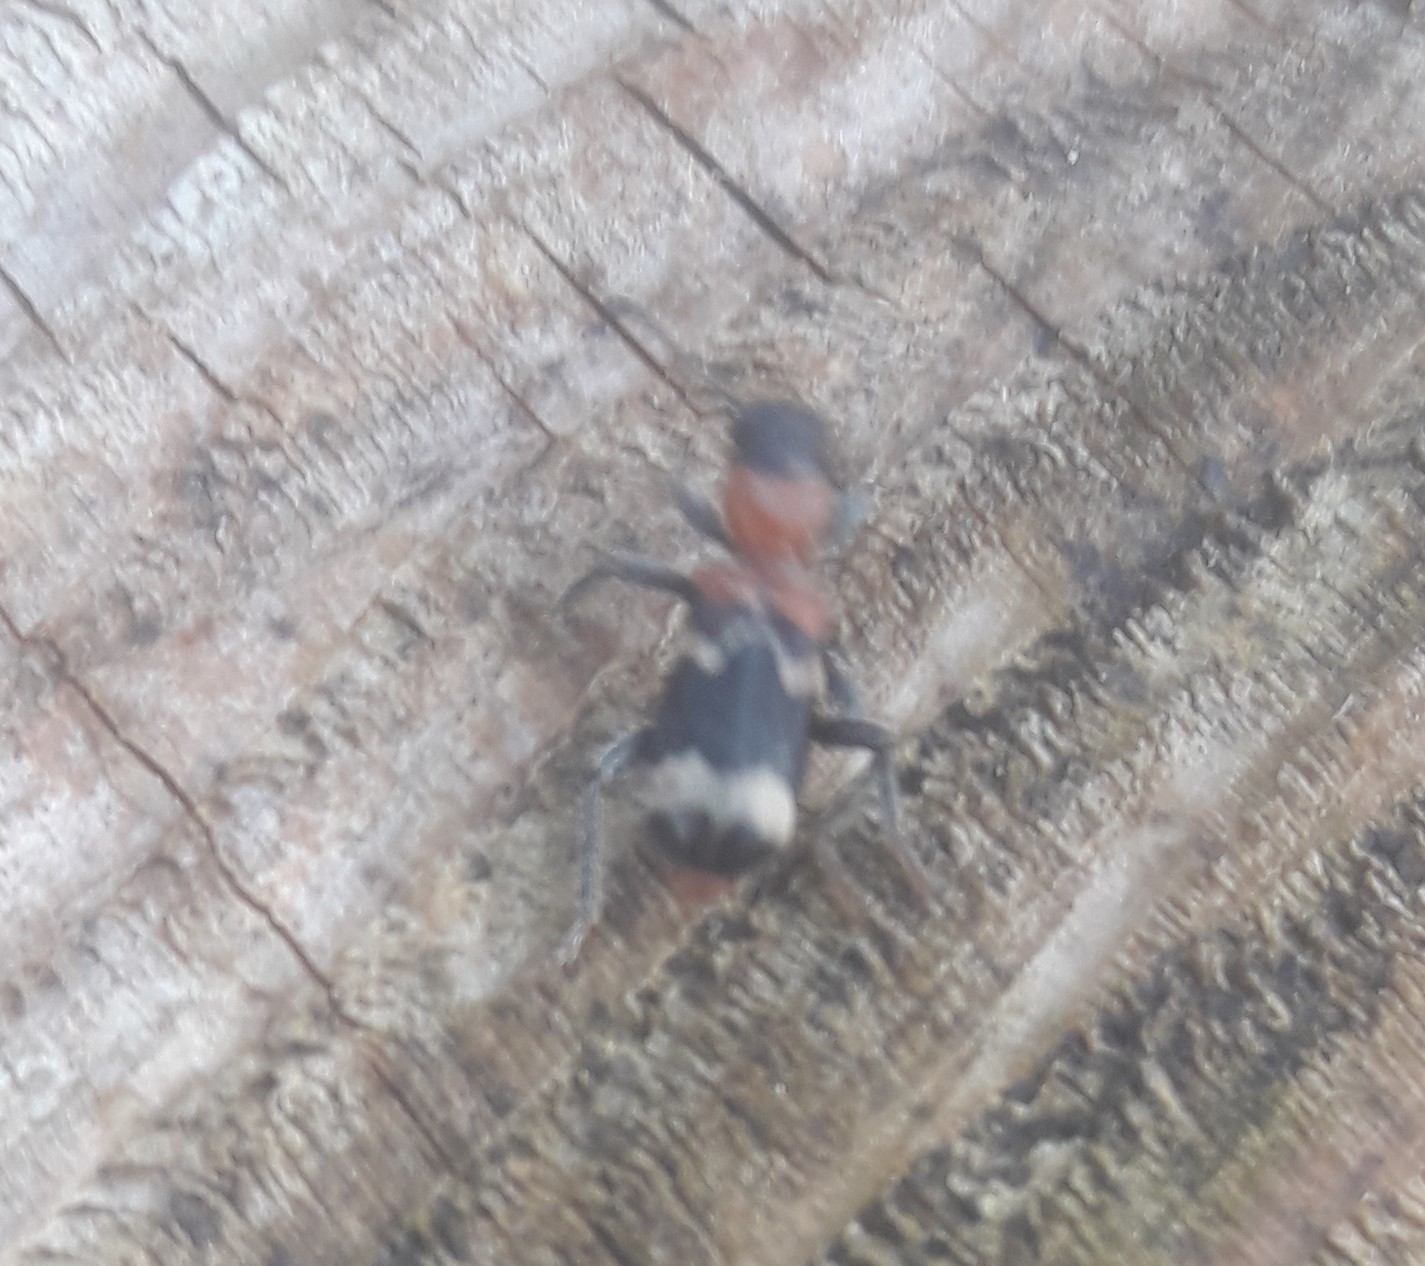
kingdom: Animalia
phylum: Arthropoda
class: Insecta
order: Coleoptera
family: Cleridae
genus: Thanasimus
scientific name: Thanasimus formicarius
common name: Ant beetle
